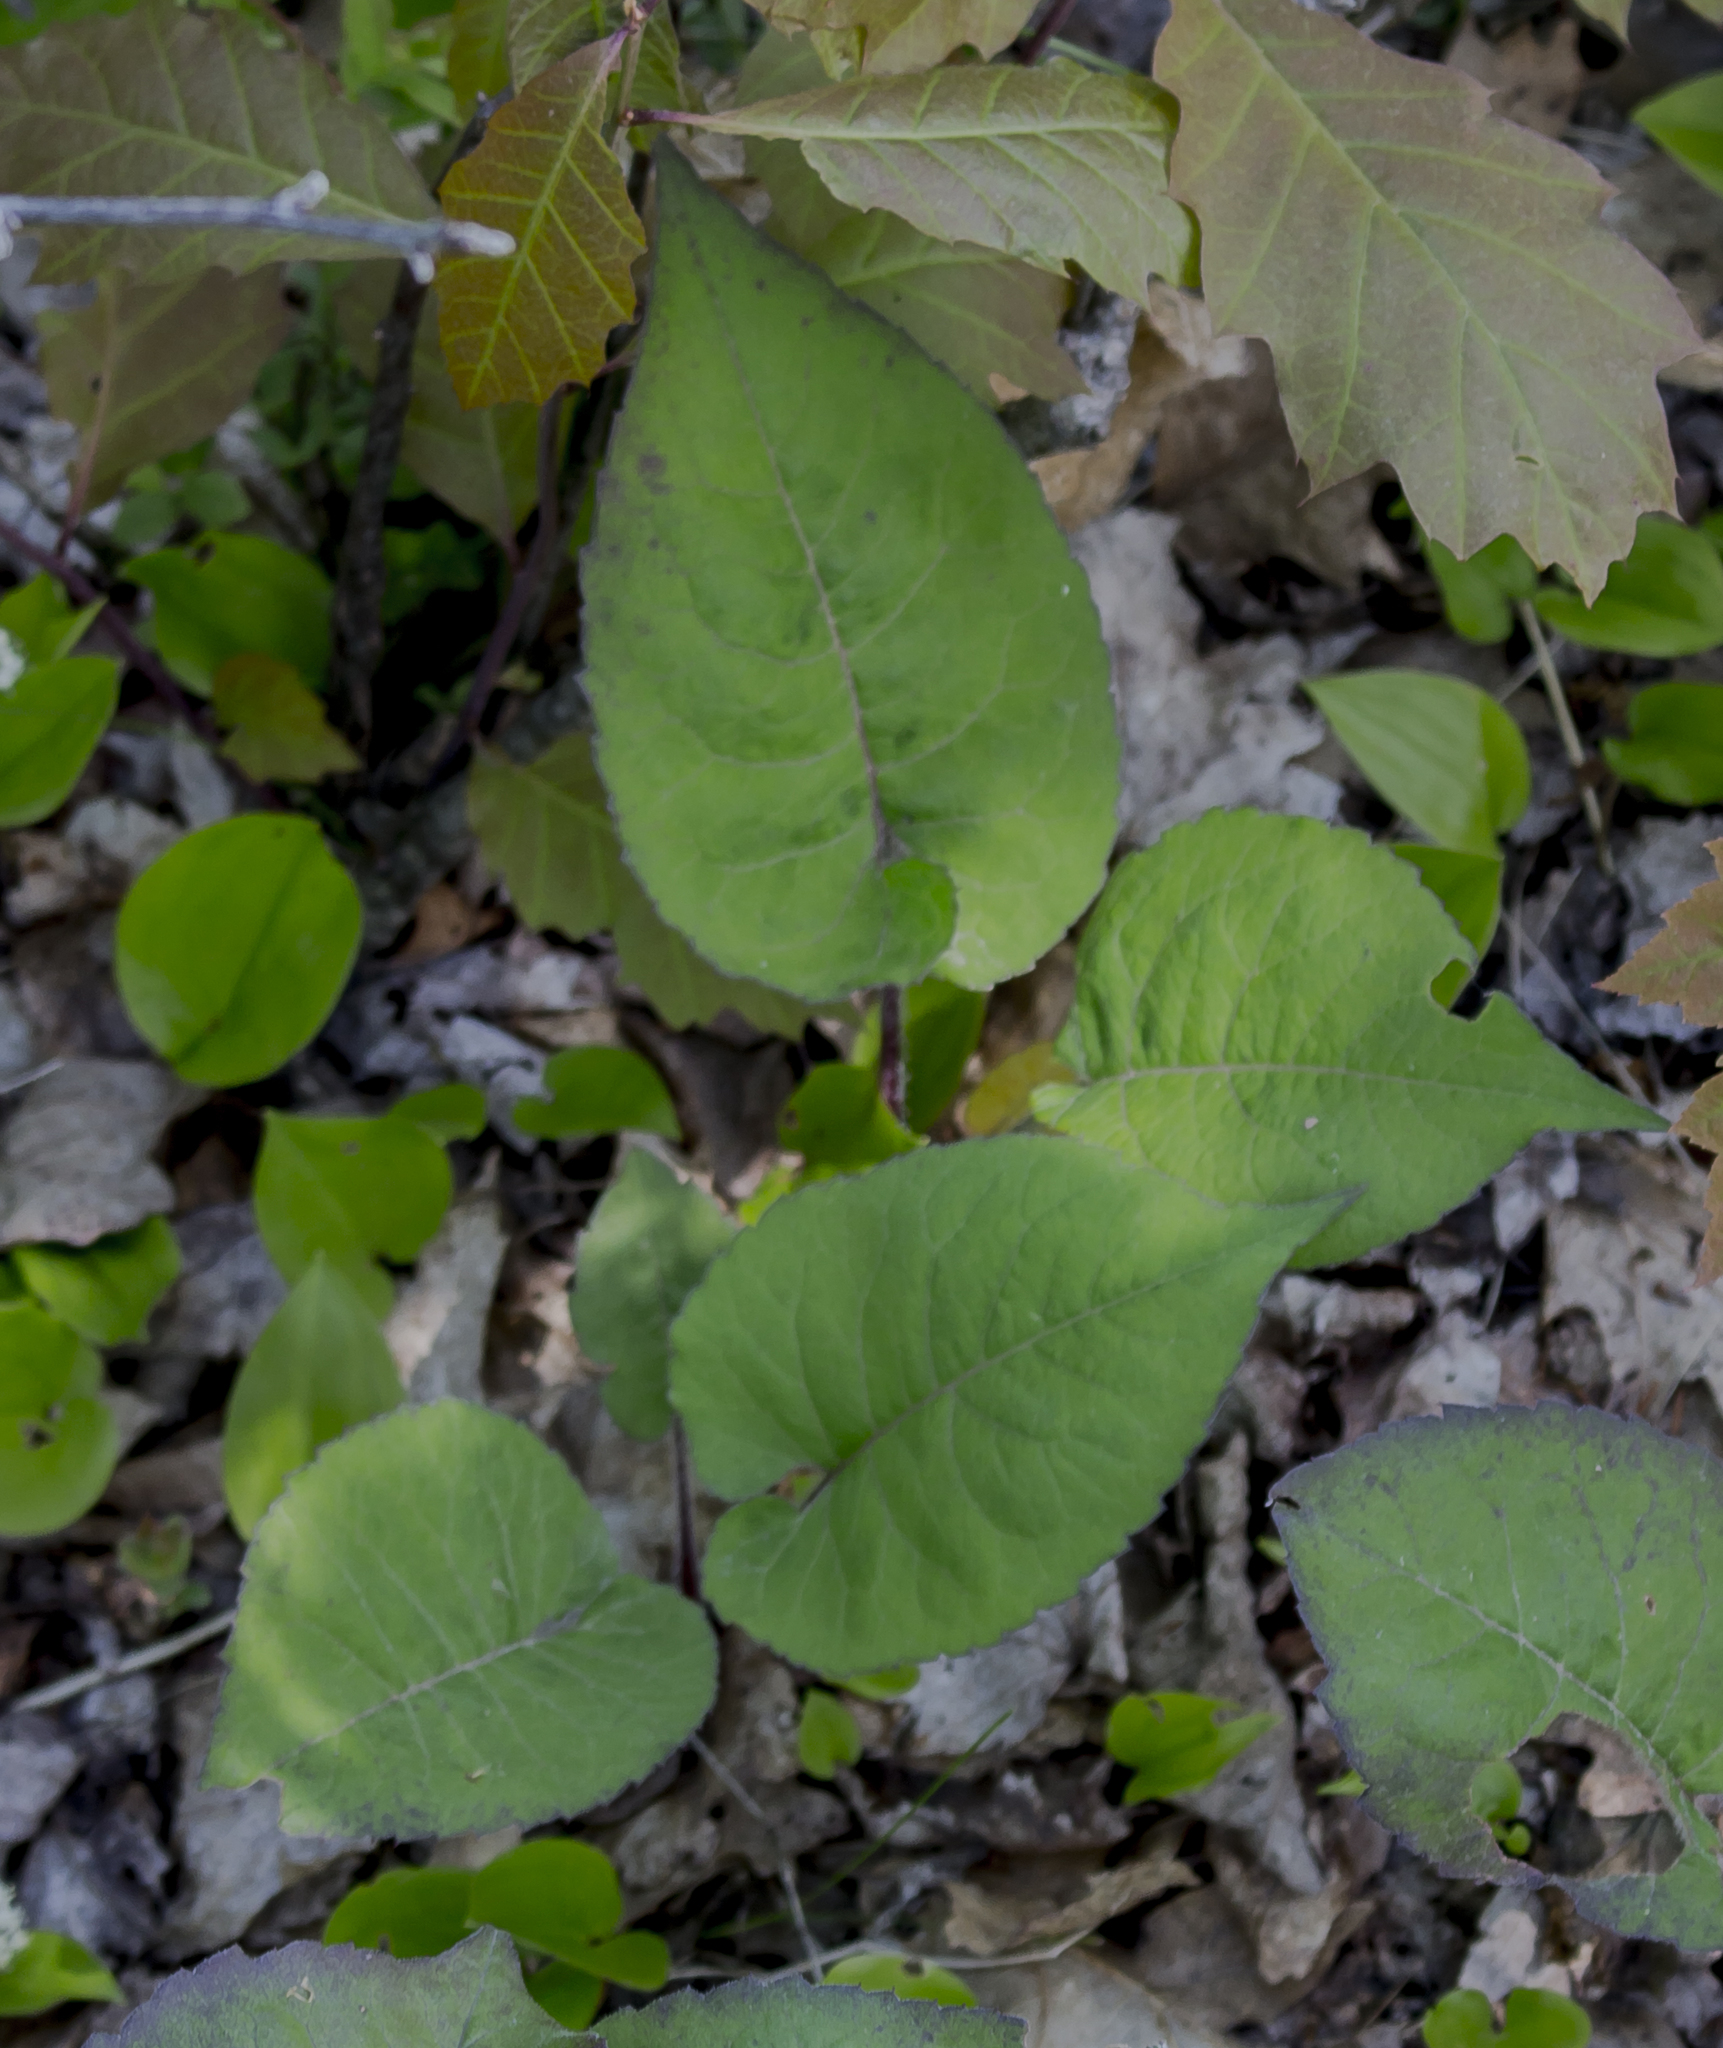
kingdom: Plantae
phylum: Tracheophyta
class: Magnoliopsida
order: Asterales
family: Asteraceae
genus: Eurybia
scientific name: Eurybia macrophylla
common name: Big-leaved aster
